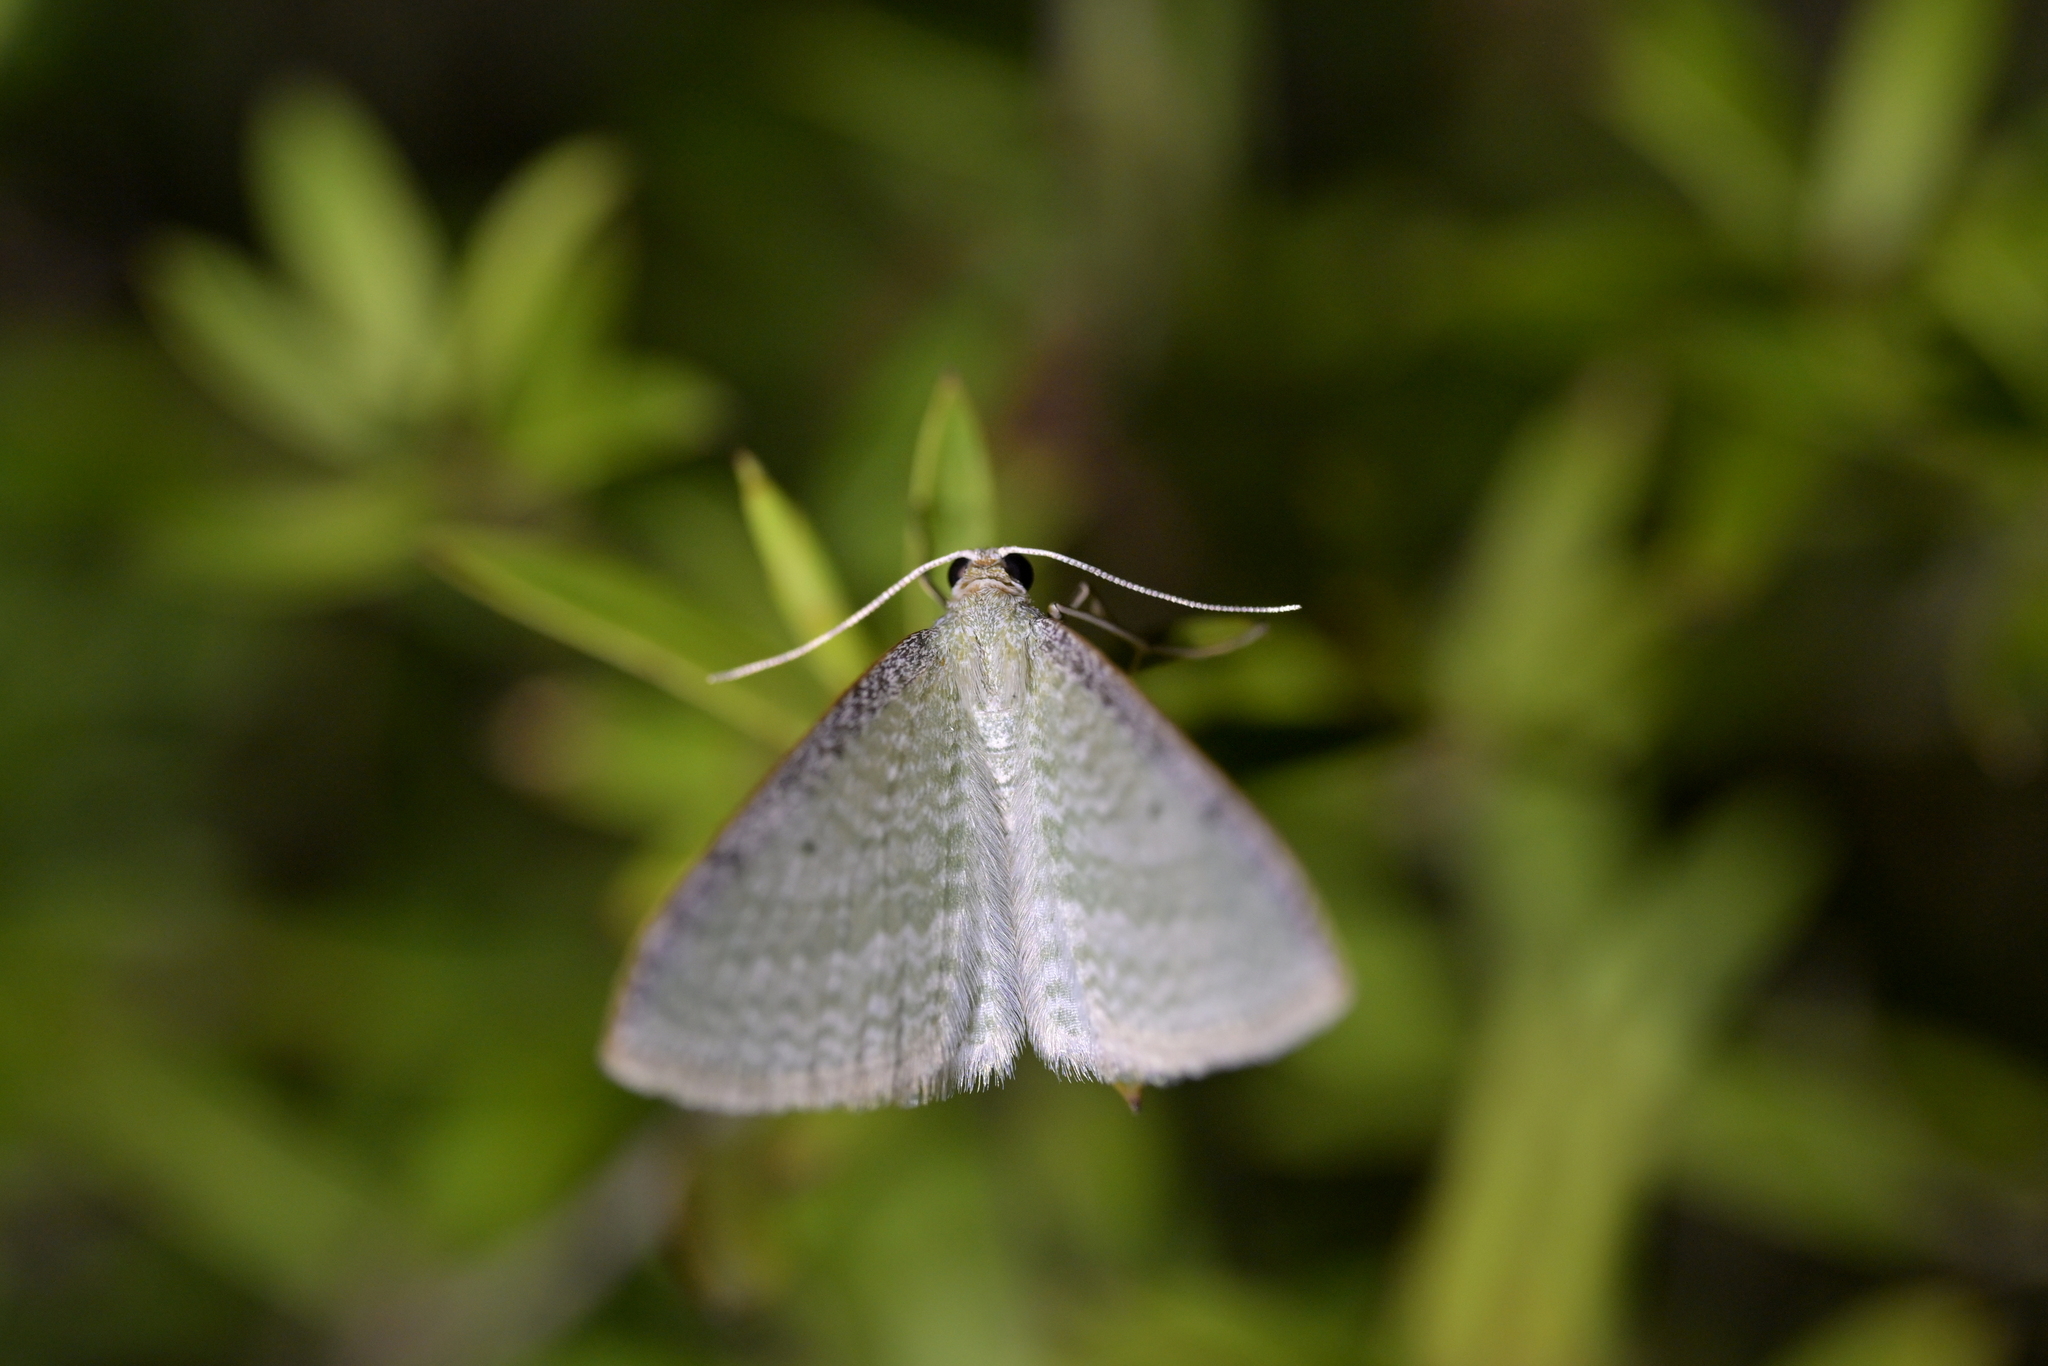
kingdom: Animalia
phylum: Arthropoda
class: Insecta
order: Lepidoptera
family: Geometridae
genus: Poecilasthena
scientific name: Poecilasthena pulchraria
